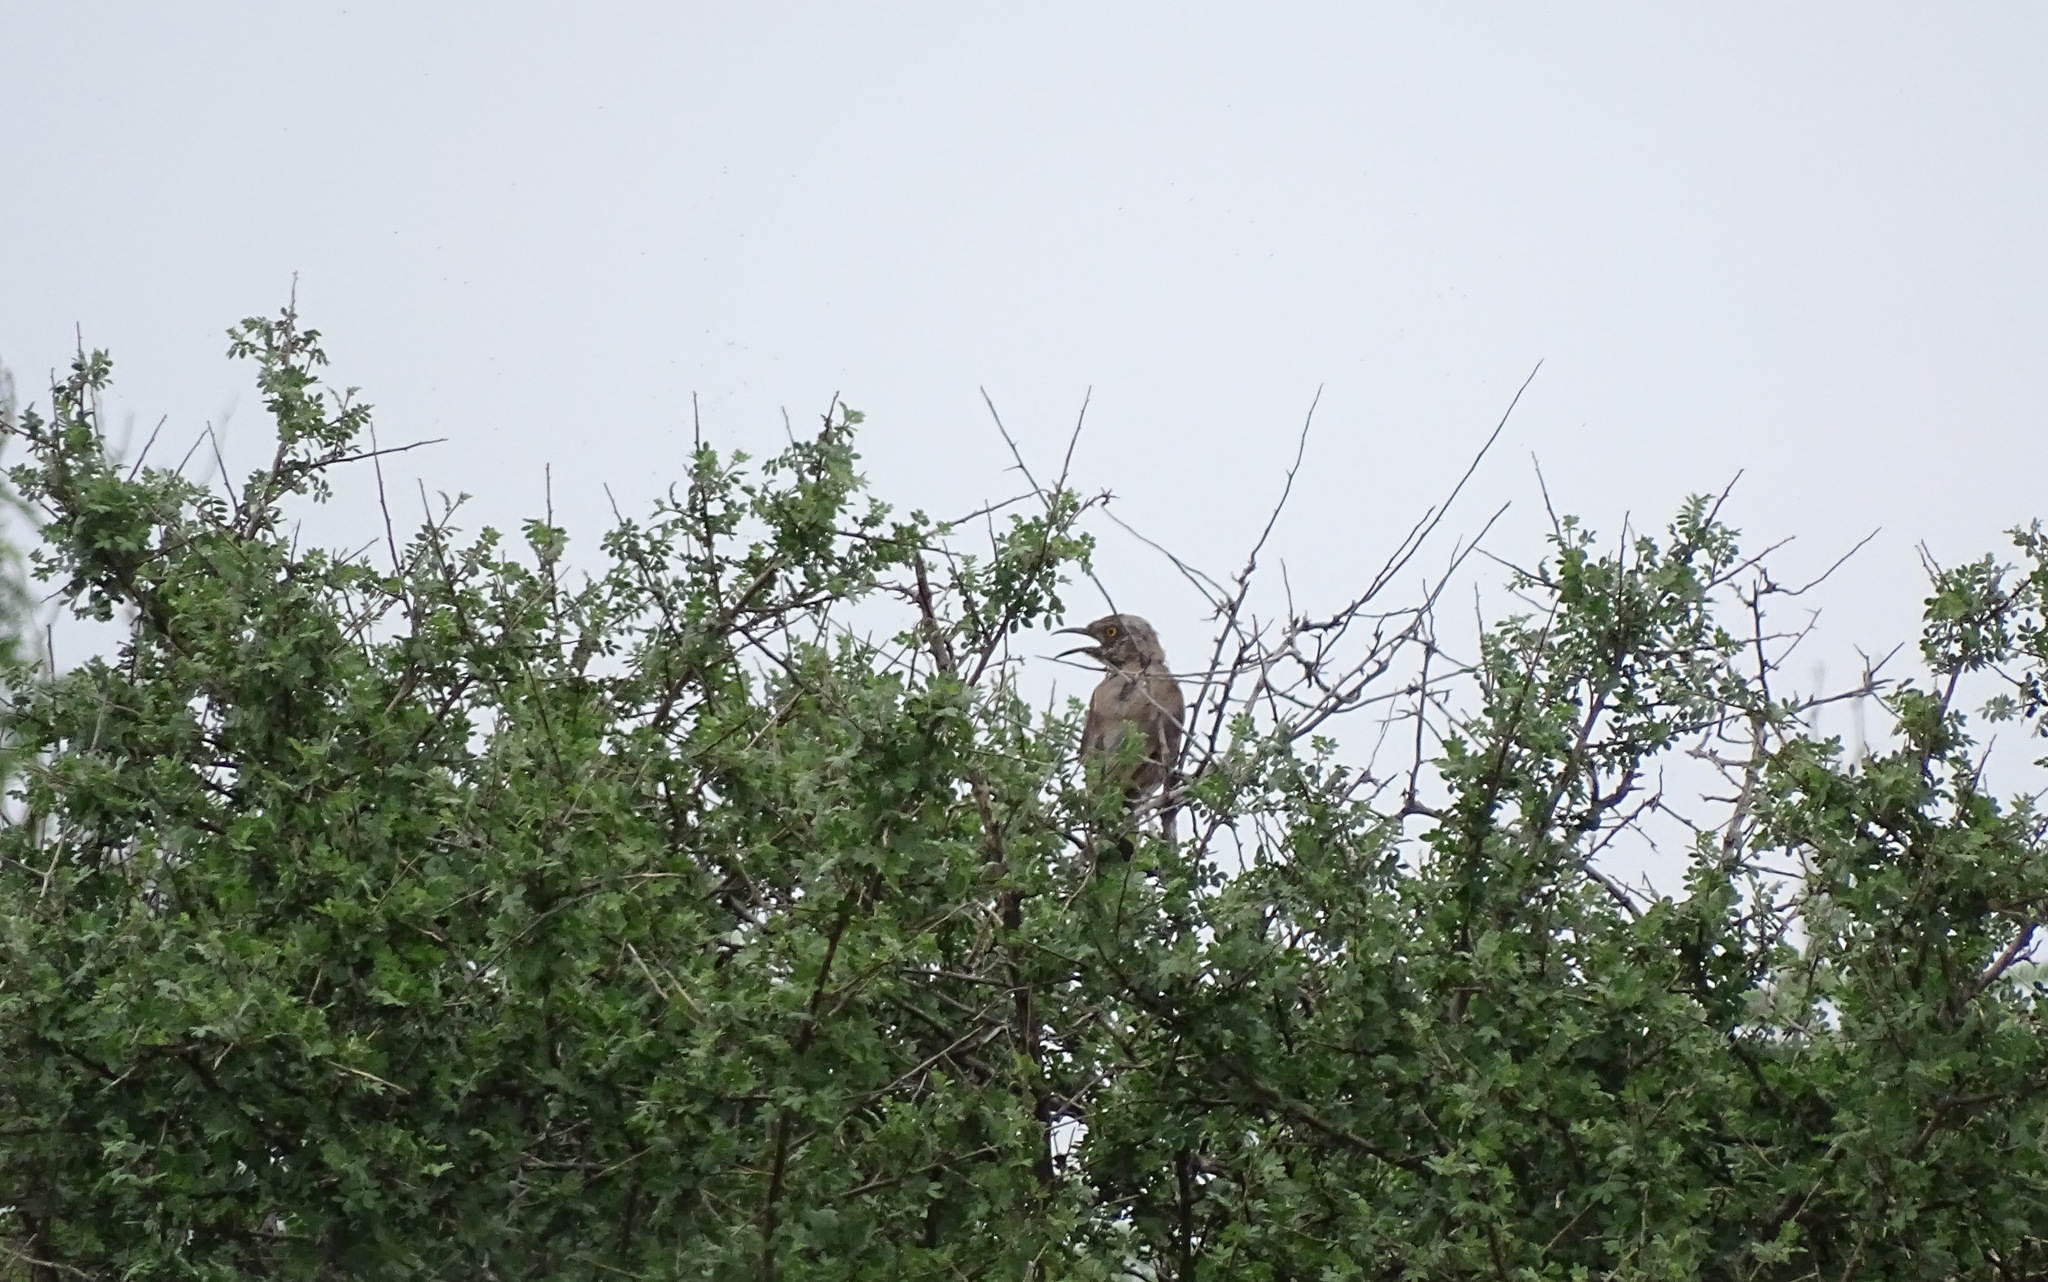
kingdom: Animalia
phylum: Chordata
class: Aves
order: Passeriformes
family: Mimidae
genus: Toxostoma
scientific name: Toxostoma bendirei
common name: Bendire's thrasher
